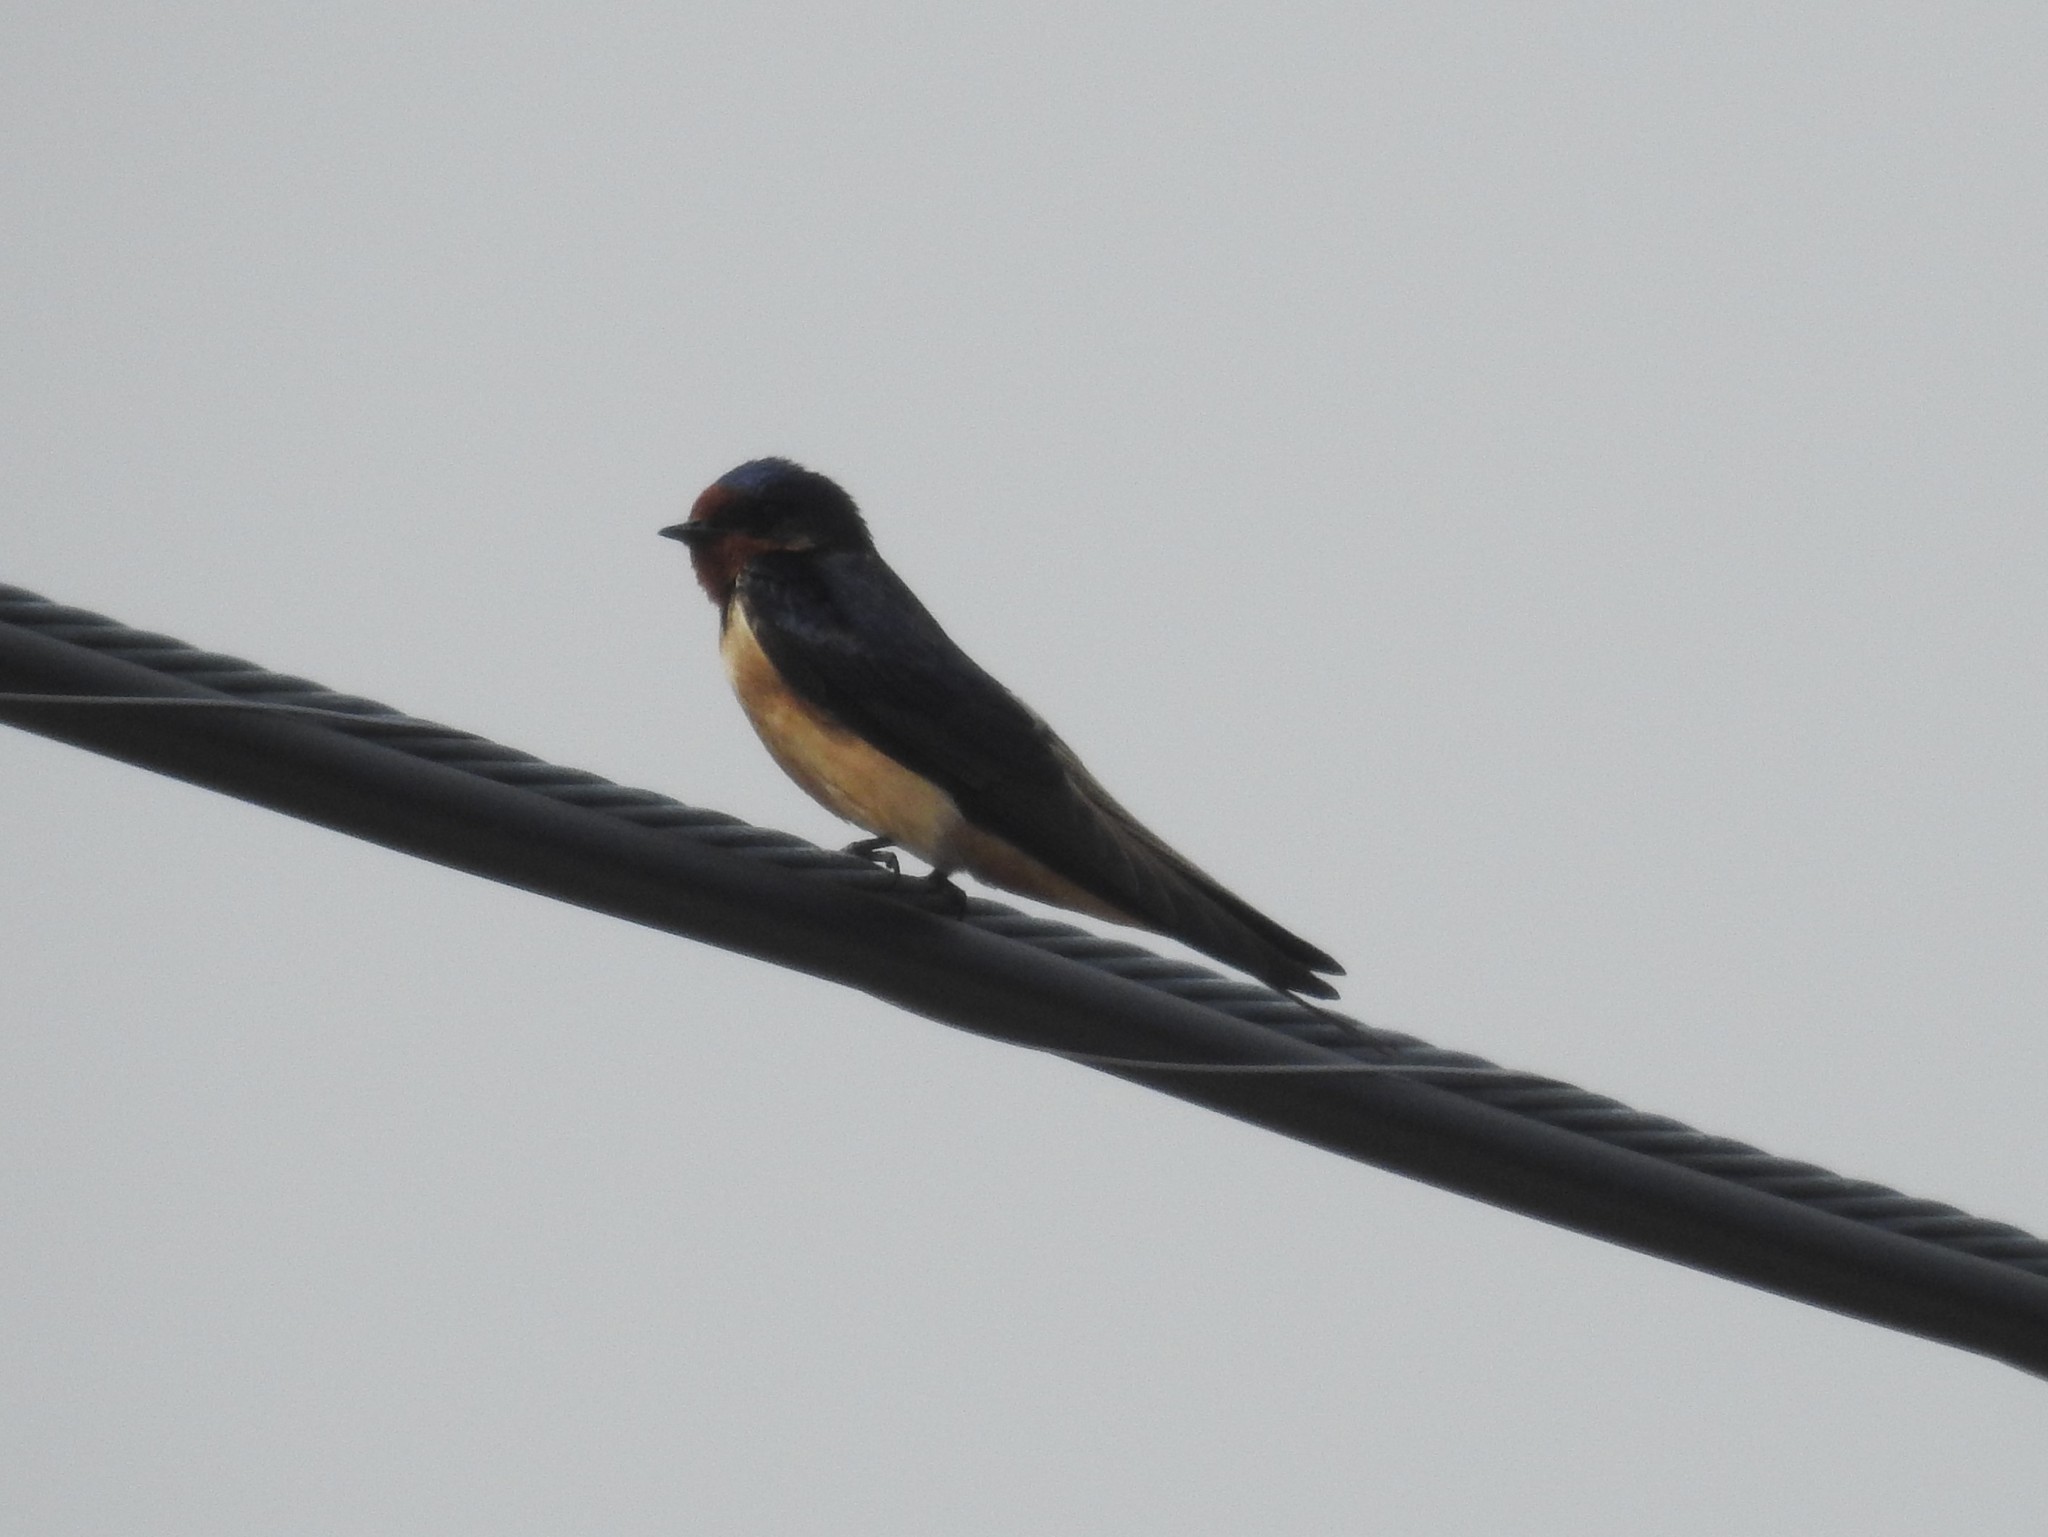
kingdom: Animalia
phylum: Chordata
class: Aves
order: Passeriformes
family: Hirundinidae
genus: Hirundo
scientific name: Hirundo rustica
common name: Barn swallow
